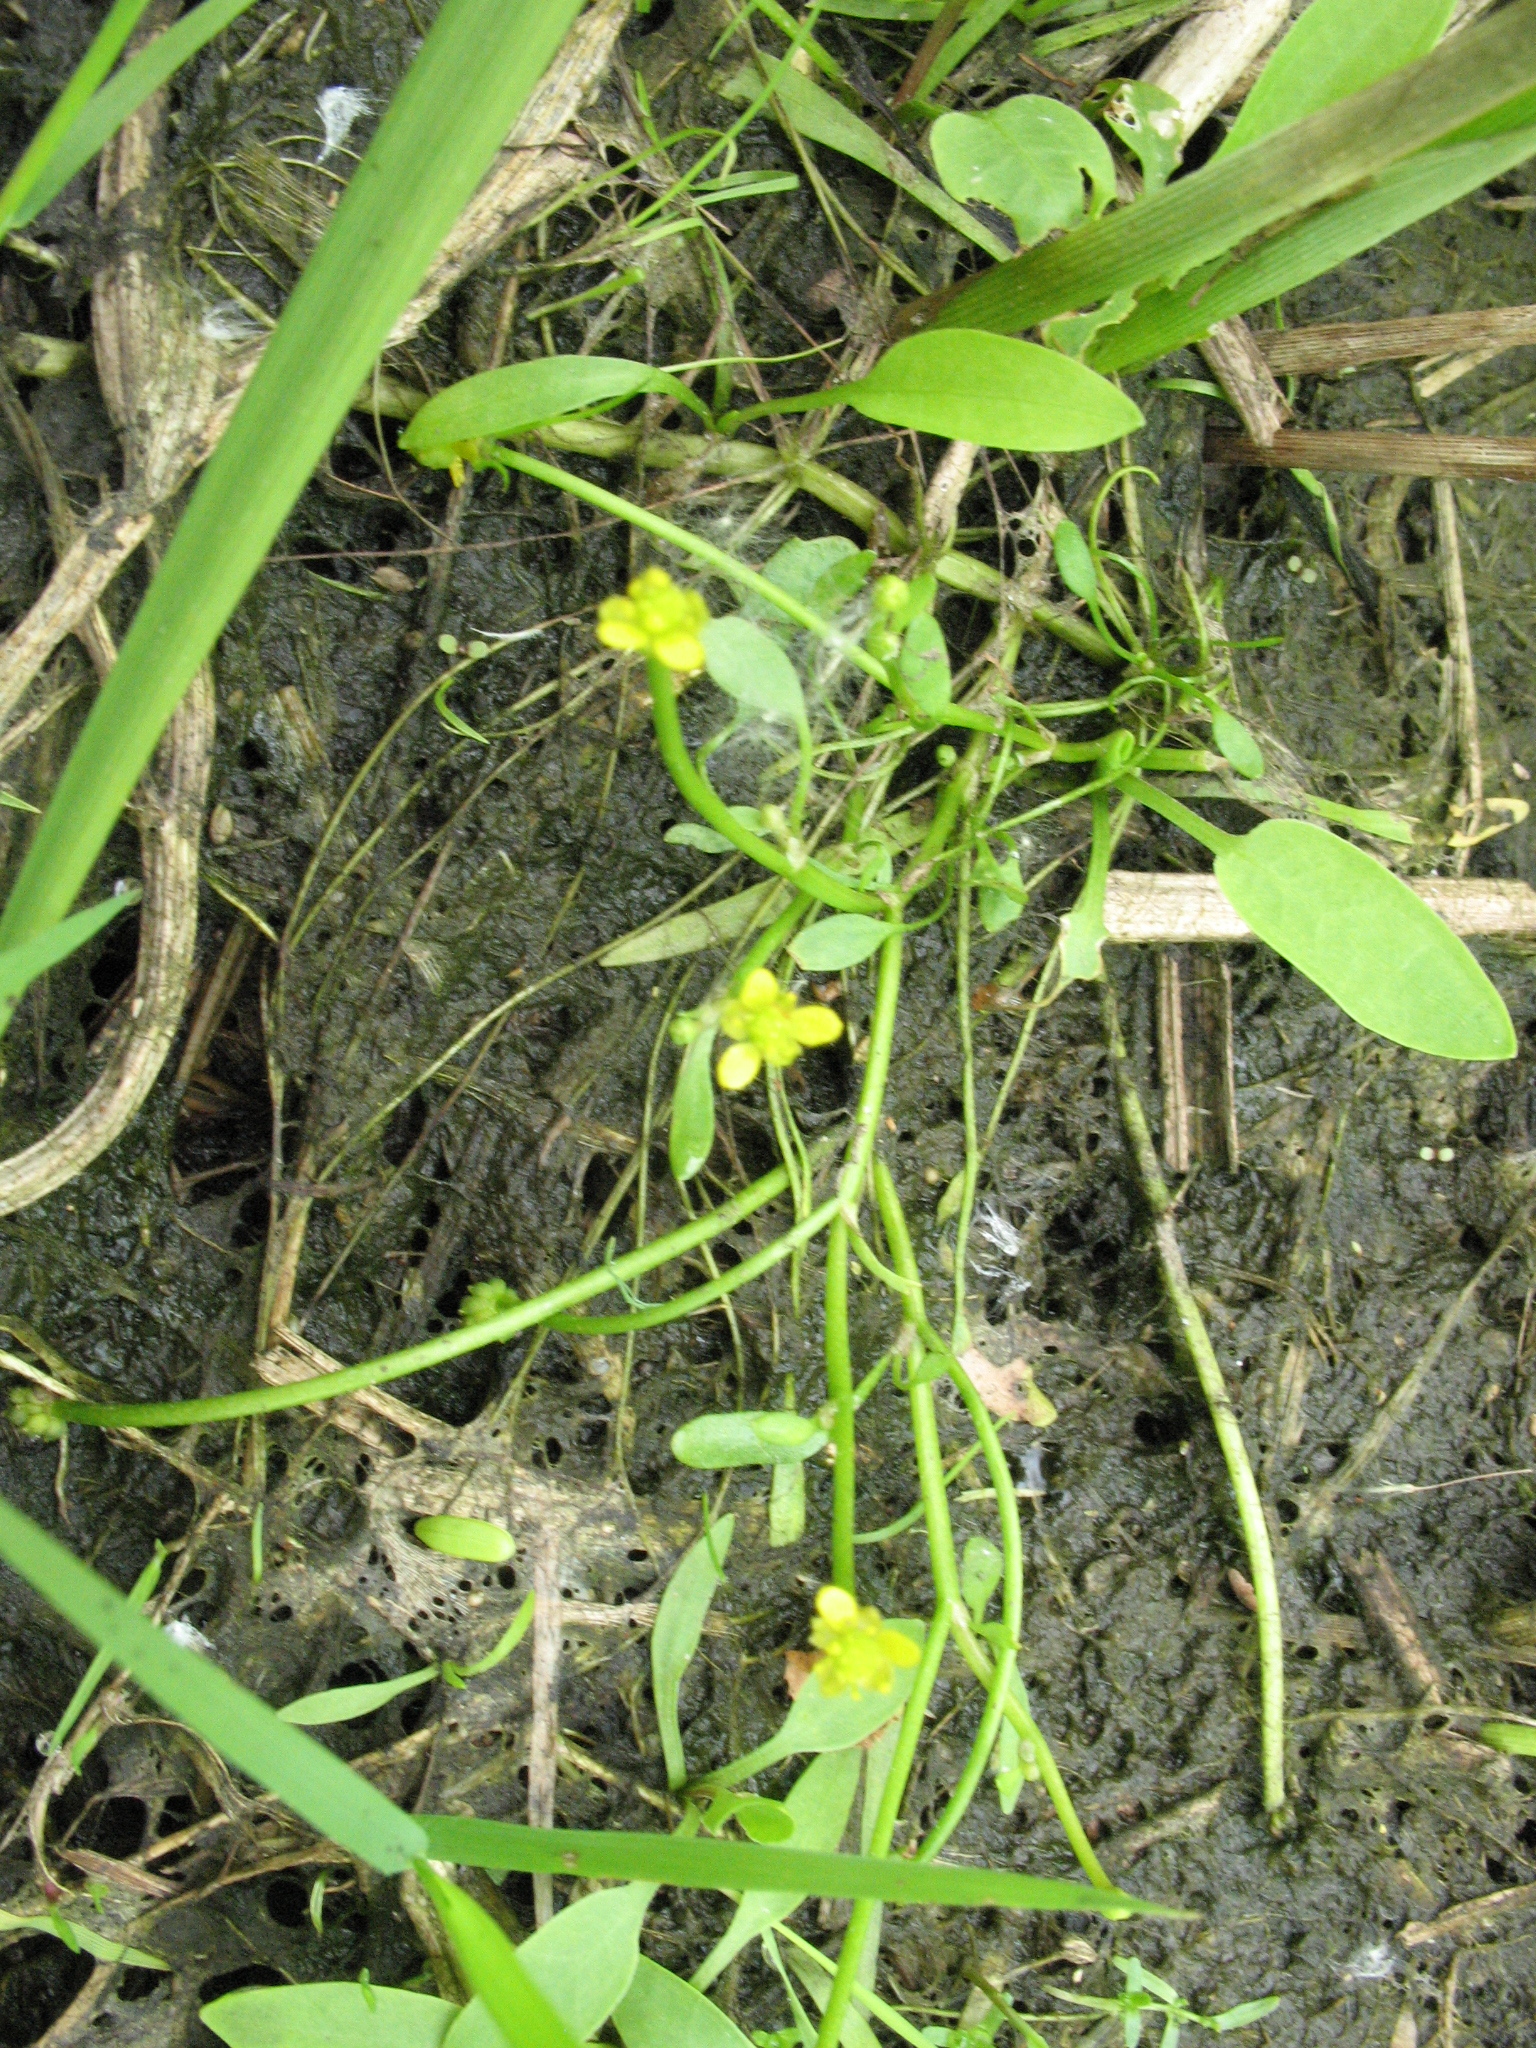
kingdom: Plantae
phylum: Tracheophyta
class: Magnoliopsida
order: Ranunculales
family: Ranunculaceae
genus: Ranunculus
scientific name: Ranunculus polyphyllus
